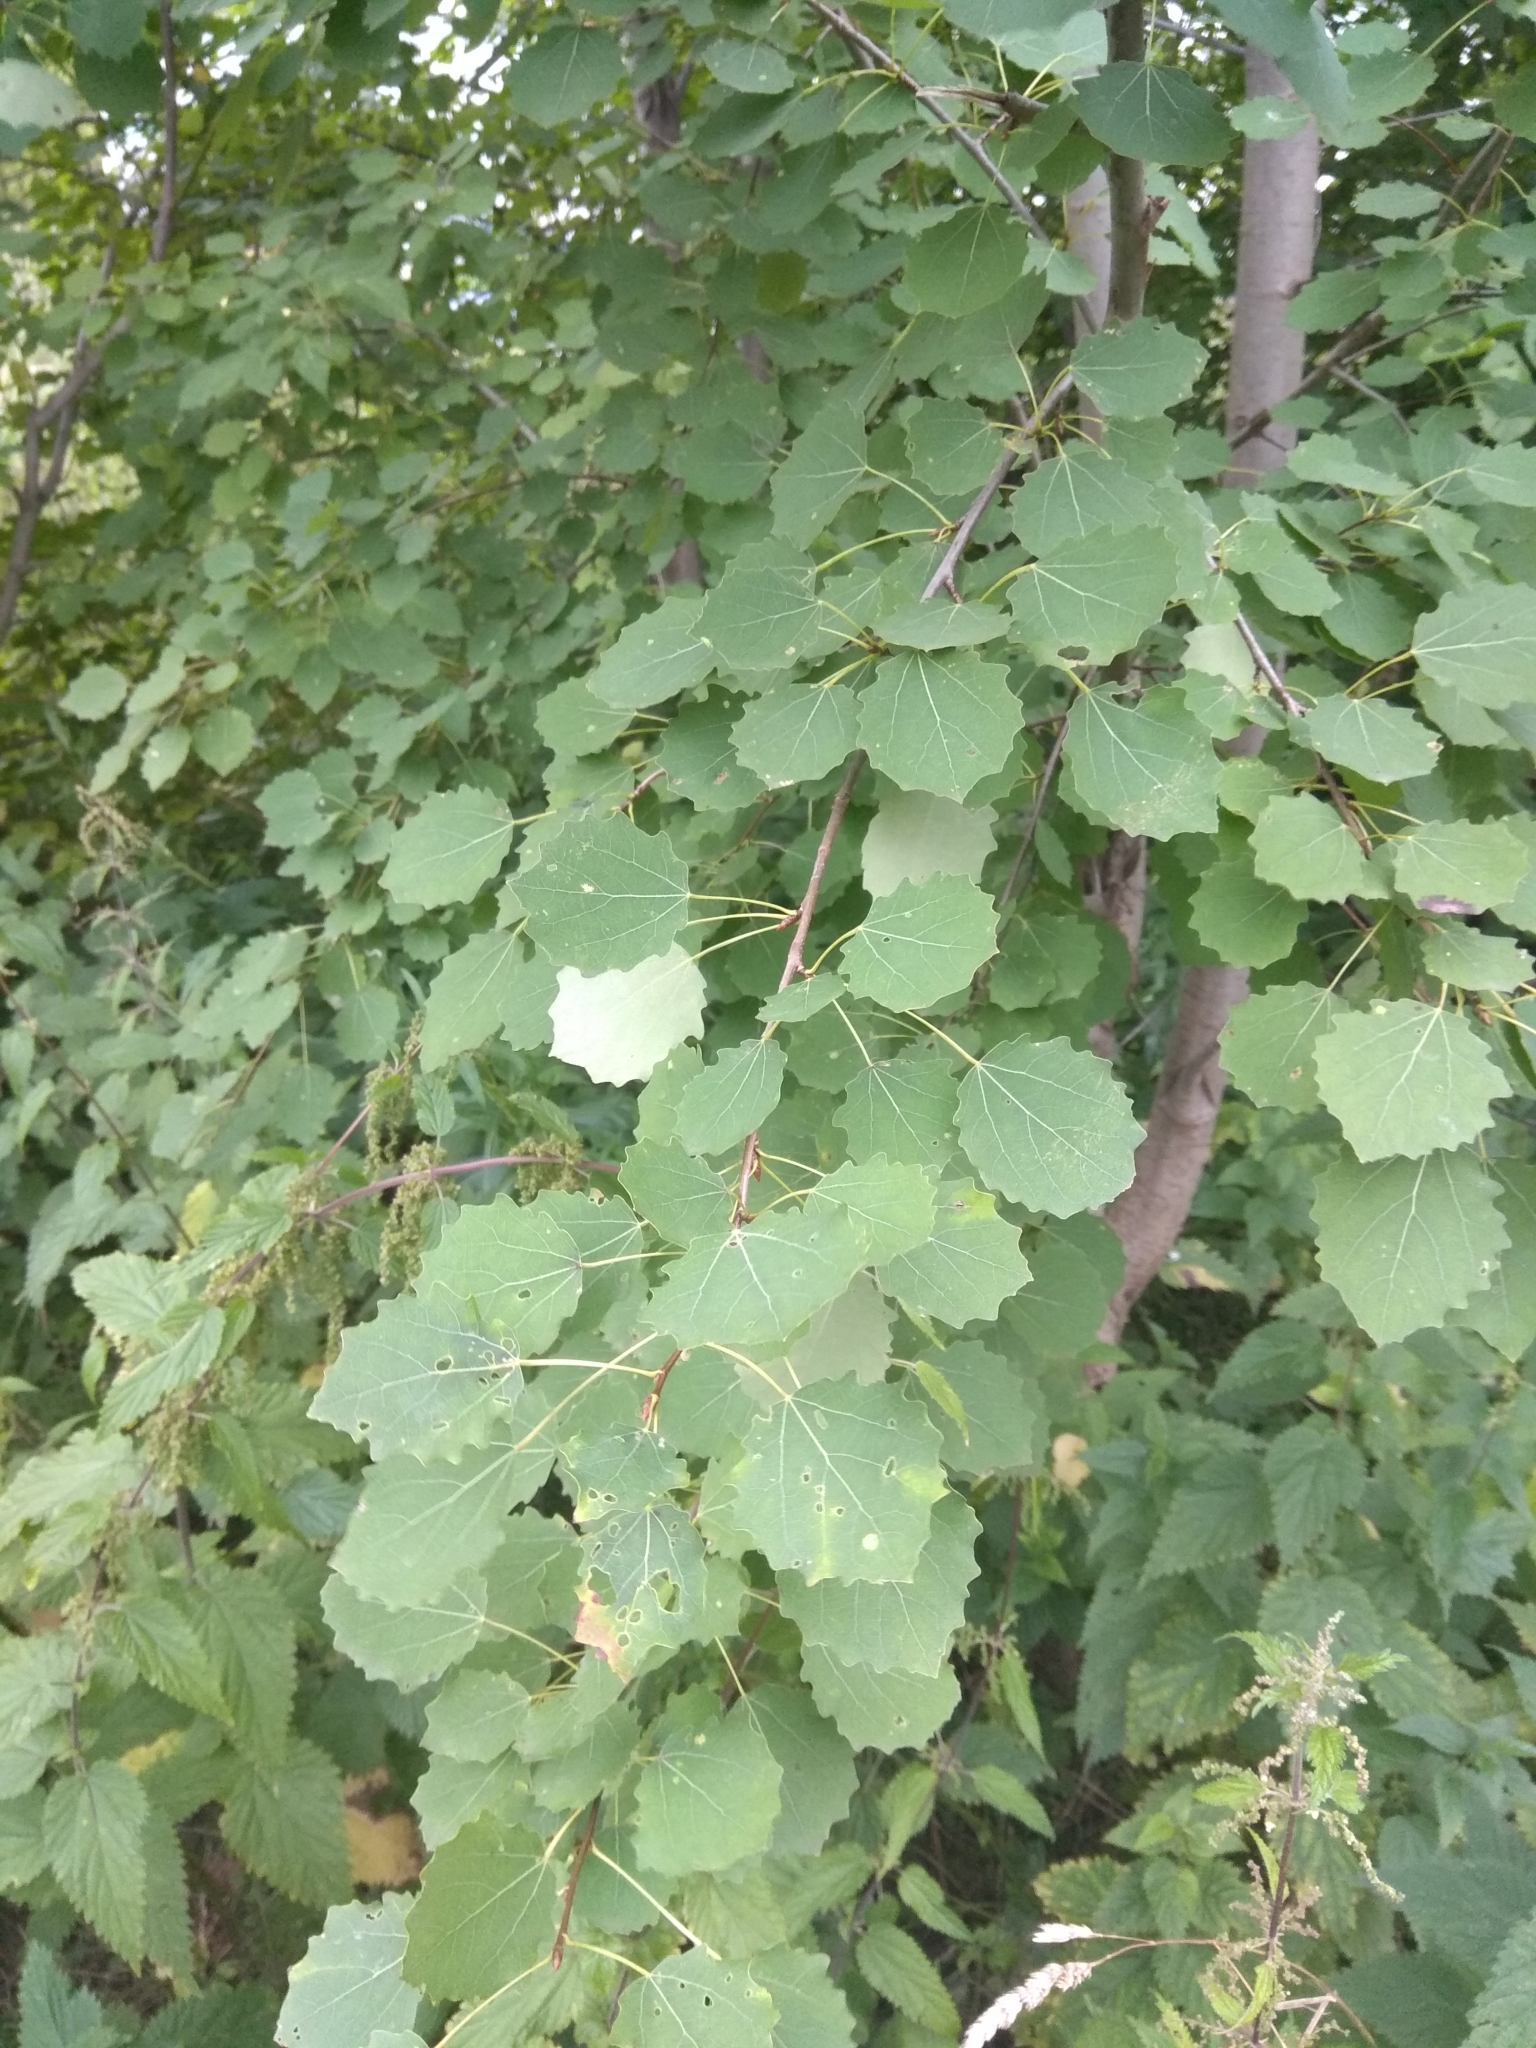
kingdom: Plantae
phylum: Tracheophyta
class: Magnoliopsida
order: Malpighiales
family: Salicaceae
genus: Populus
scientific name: Populus tremula
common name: European aspen
